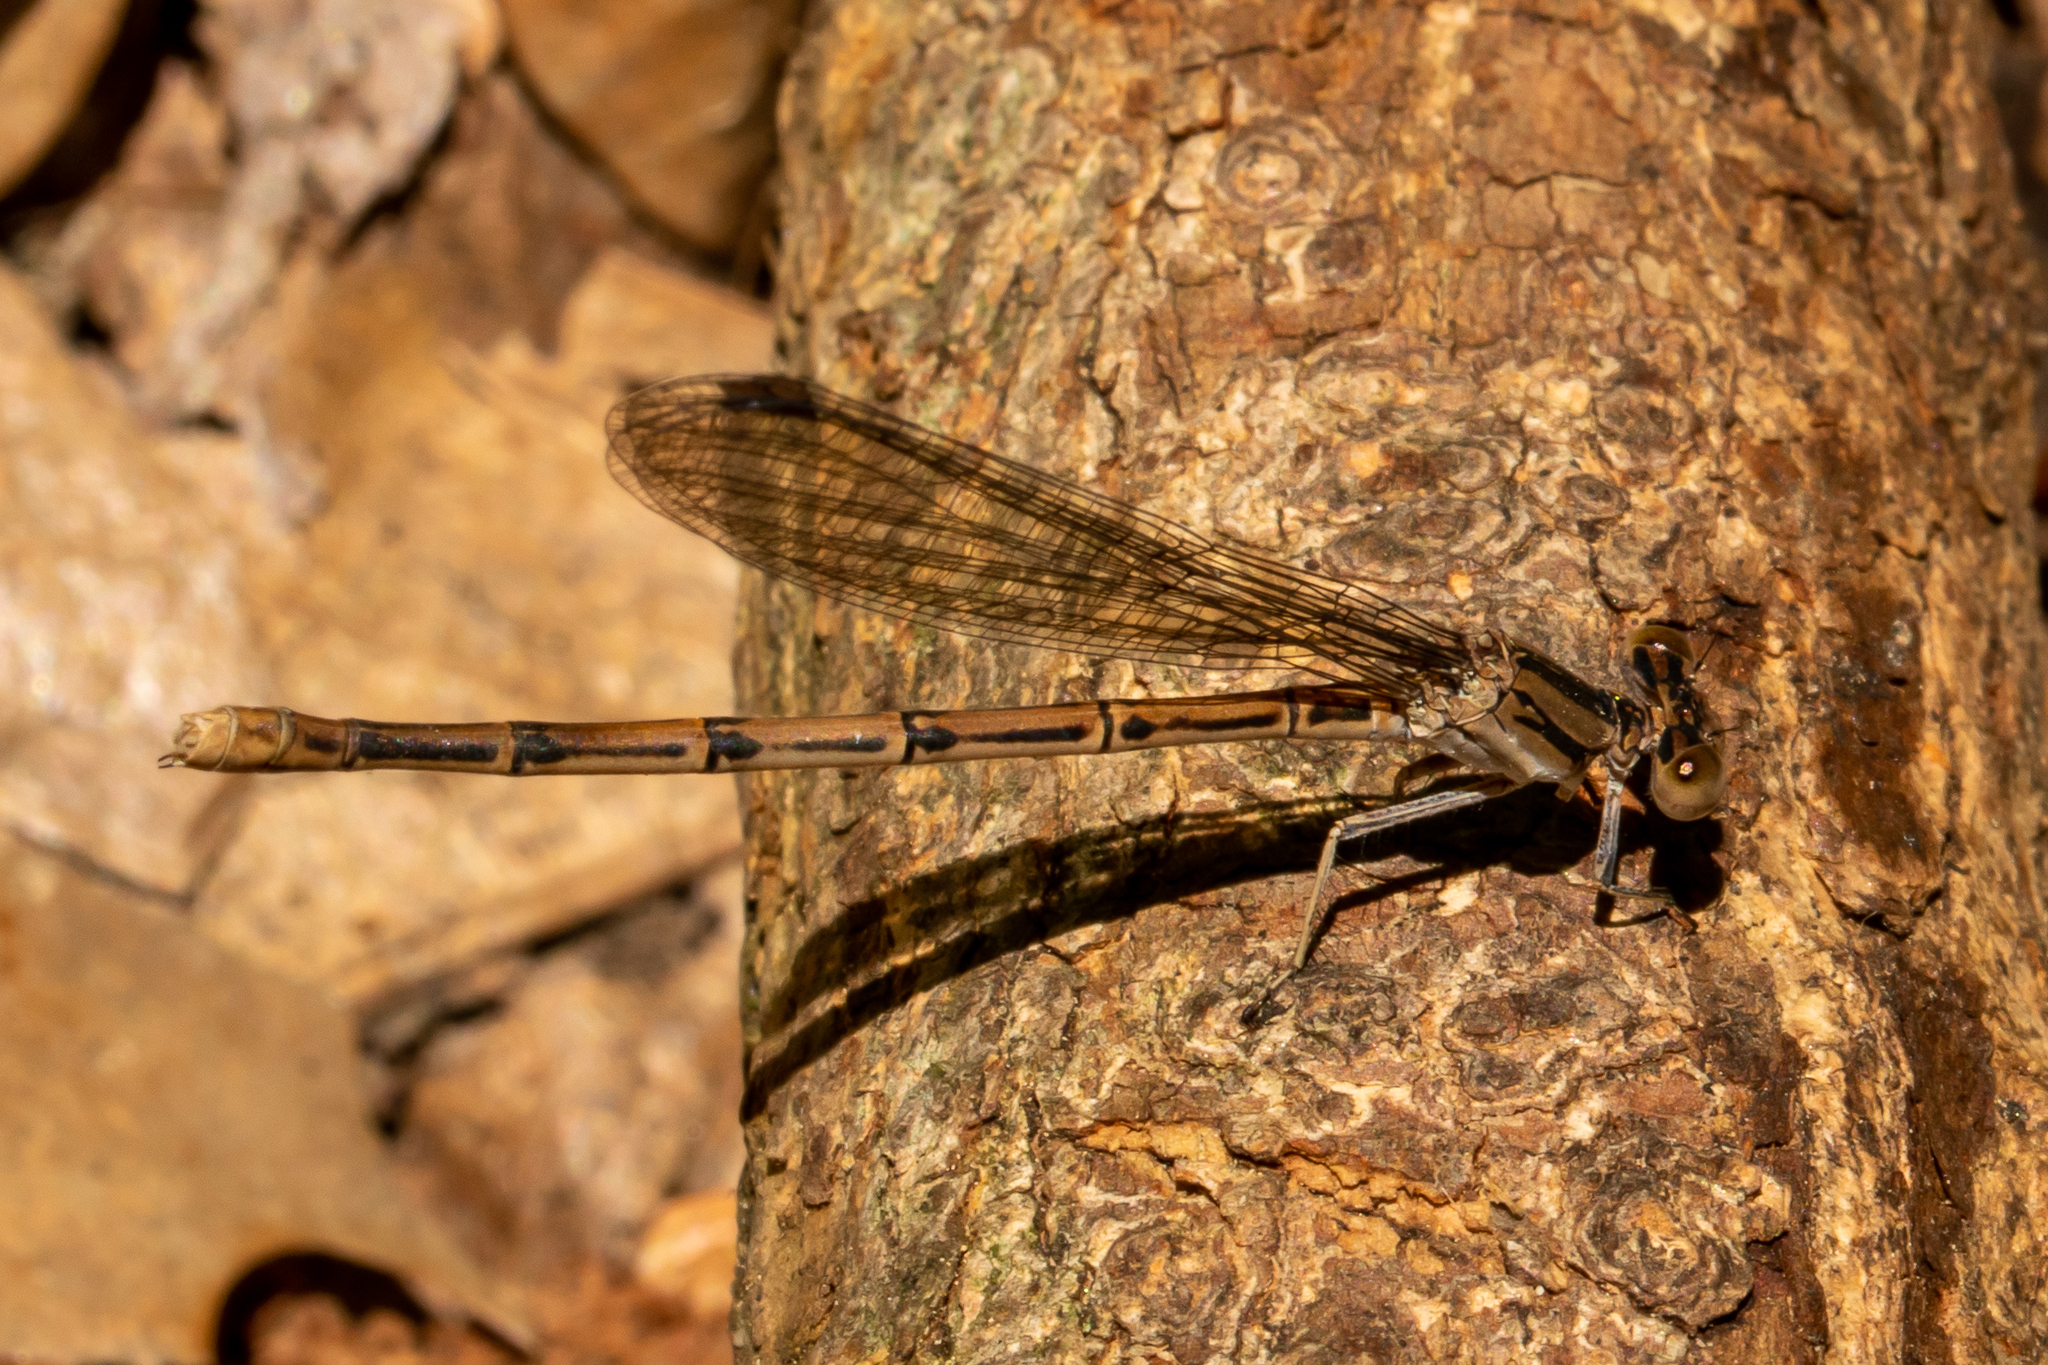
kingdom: Animalia
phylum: Arthropoda
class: Insecta
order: Odonata
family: Coenagrionidae
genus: Argia
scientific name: Argia fumipennis
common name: Variable dancer
